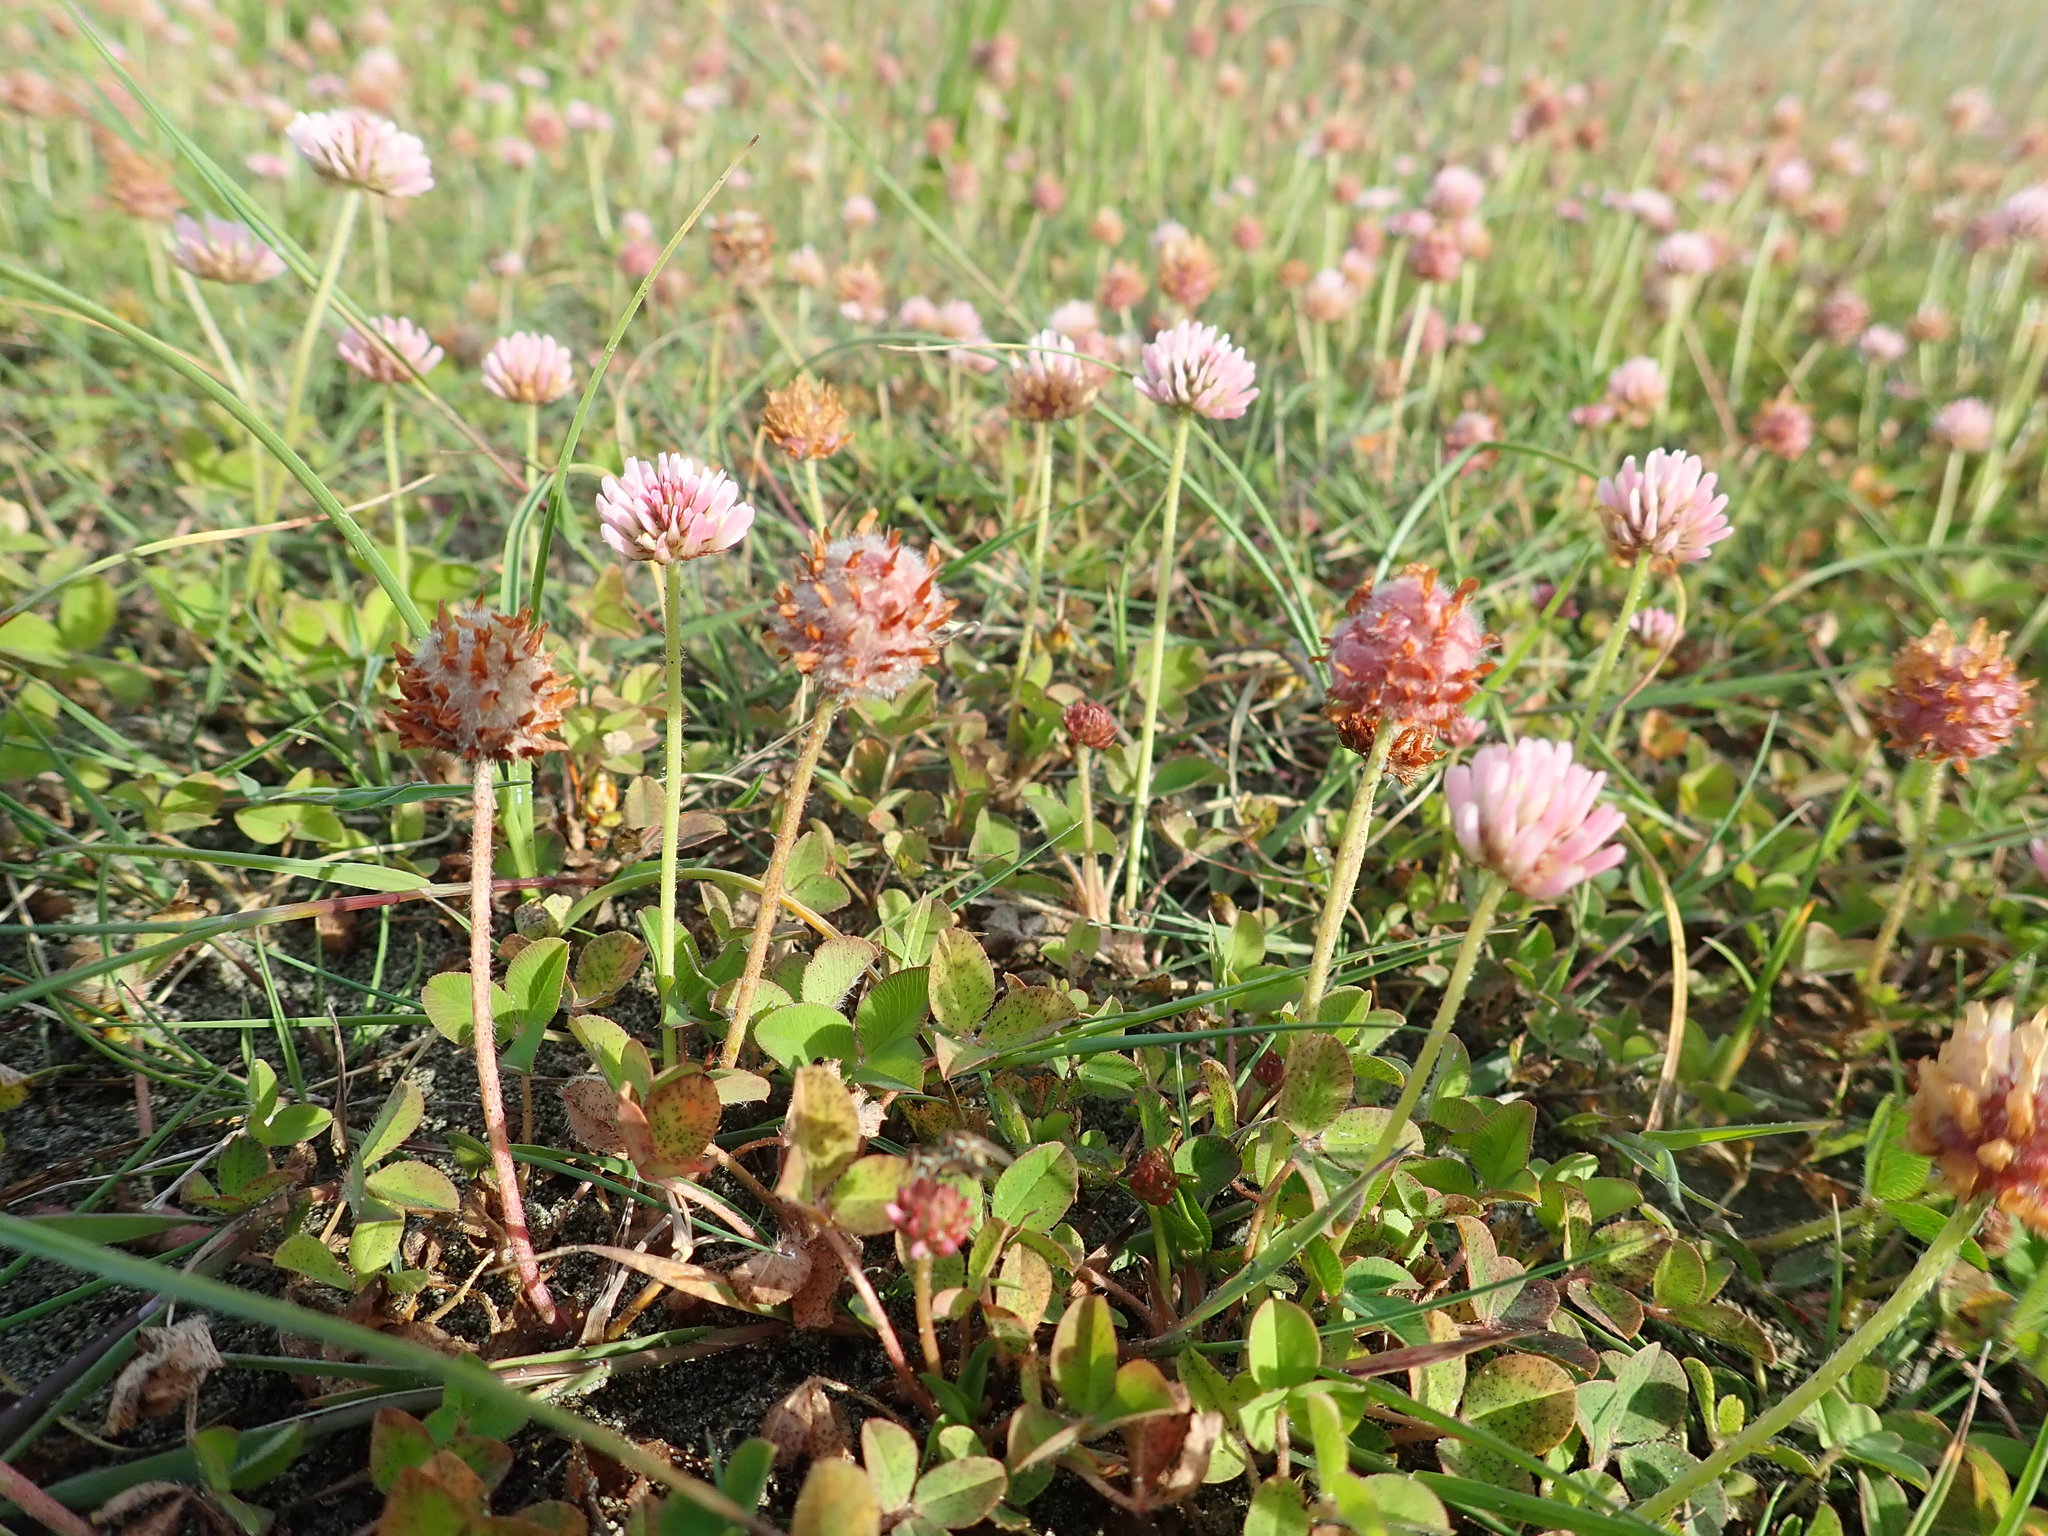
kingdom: Plantae
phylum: Tracheophyta
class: Magnoliopsida
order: Fabales
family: Fabaceae
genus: Trifolium
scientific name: Trifolium fragiferum
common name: Strawberry clover
